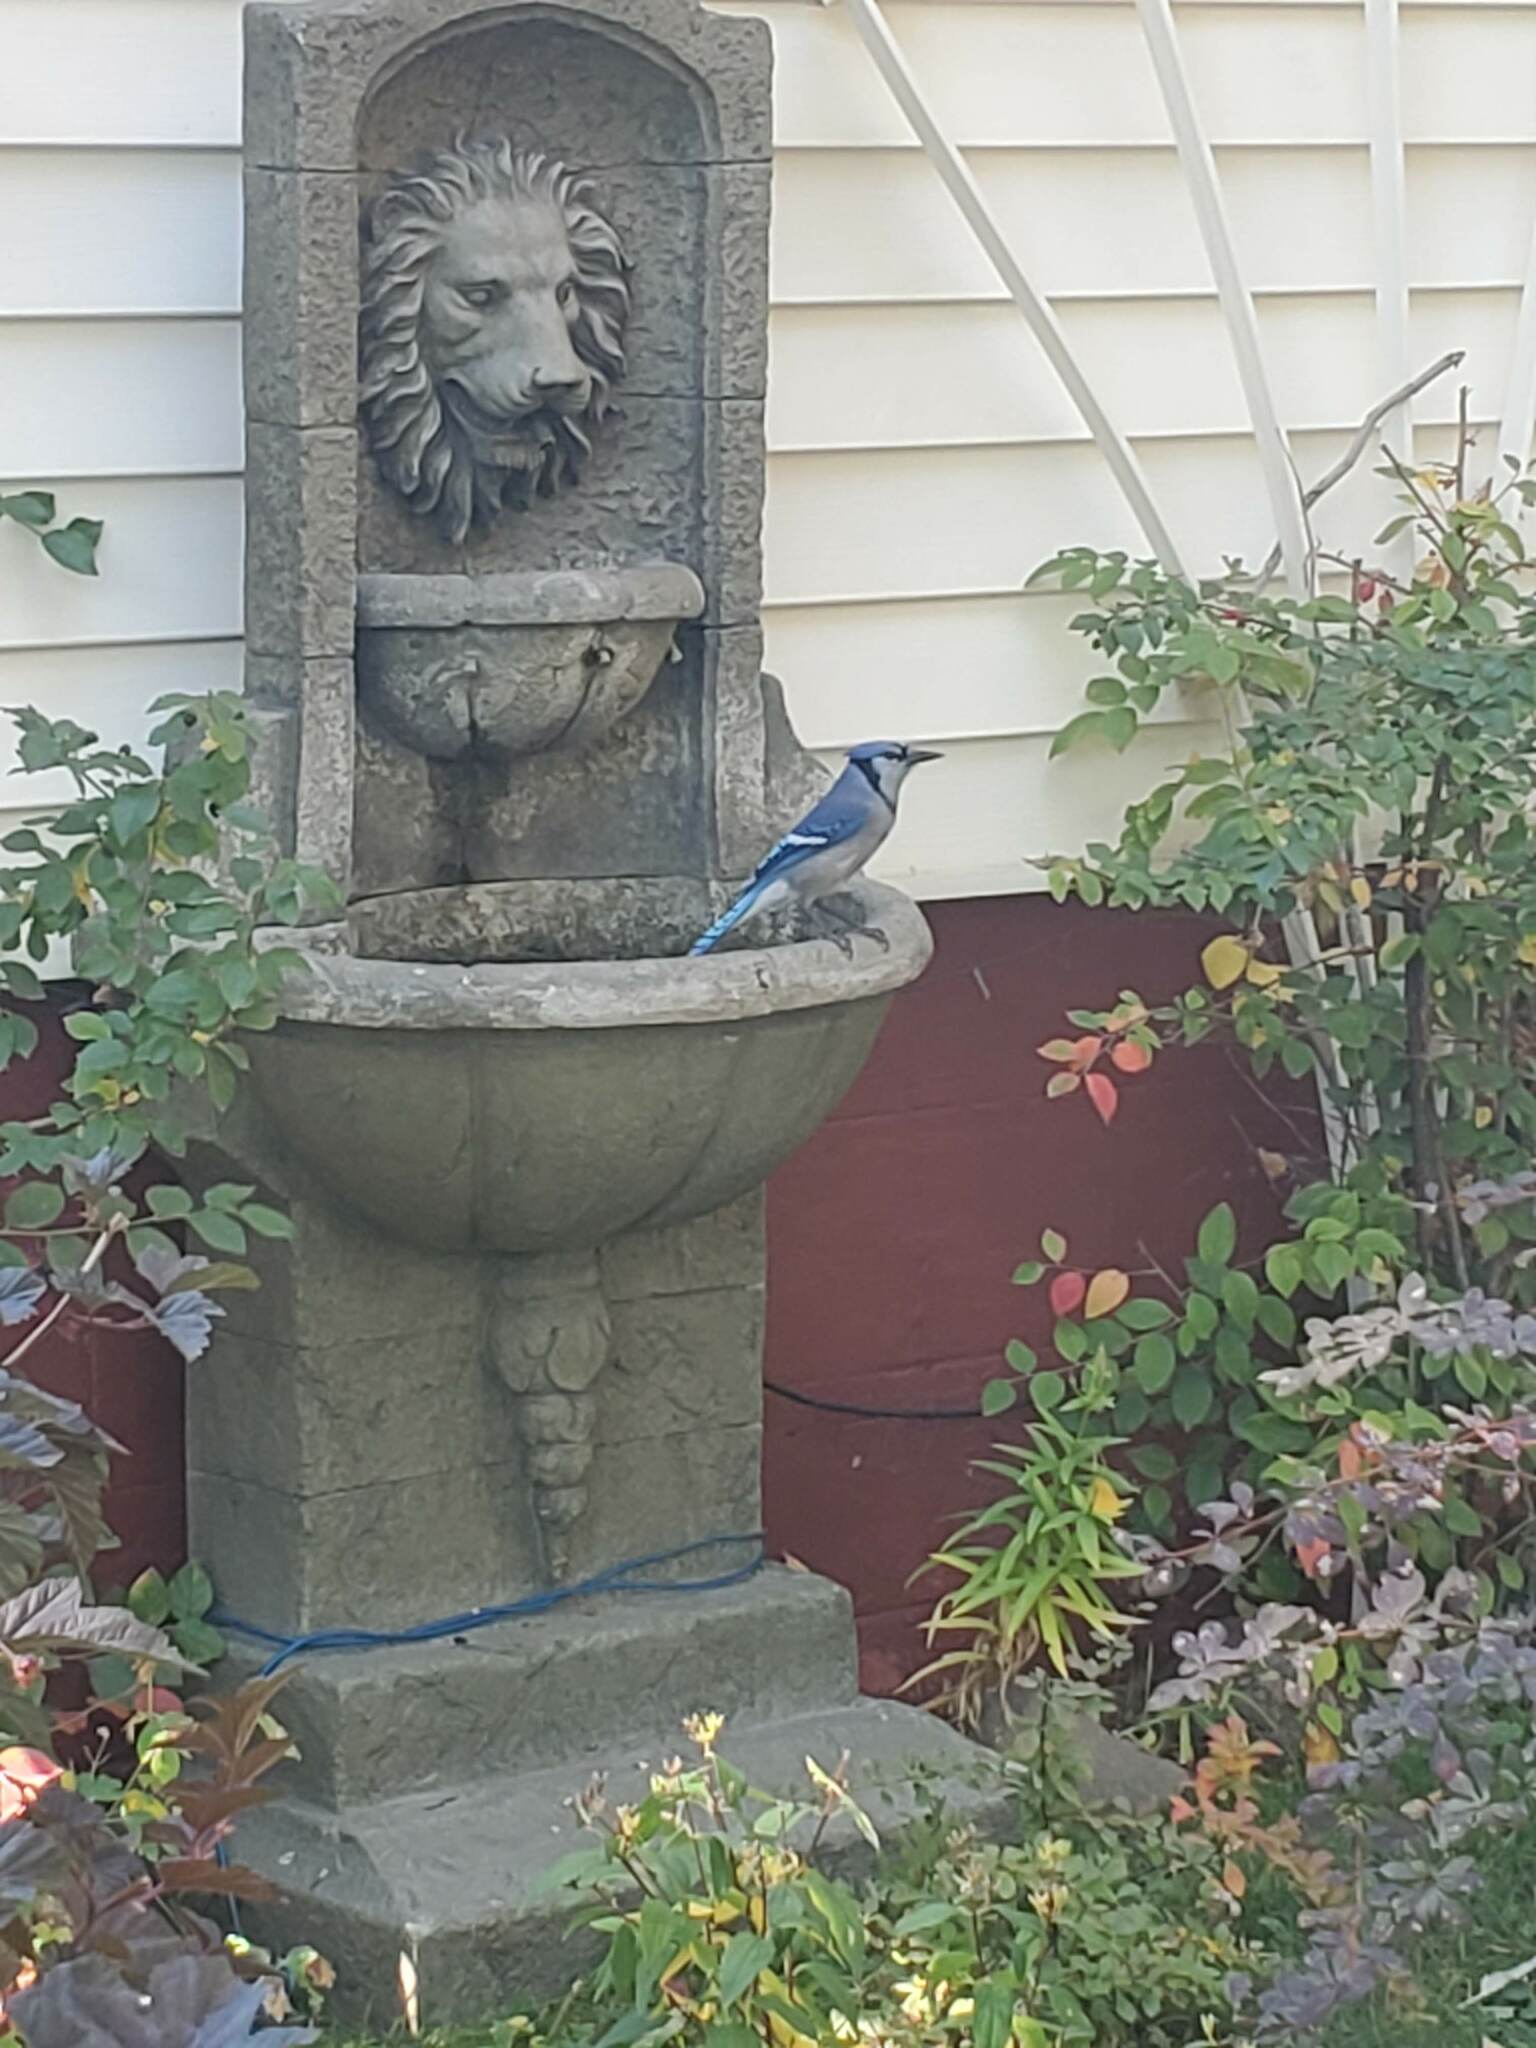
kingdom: Animalia
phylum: Chordata
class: Aves
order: Passeriformes
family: Corvidae
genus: Cyanocitta
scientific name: Cyanocitta cristata
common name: Blue jay
